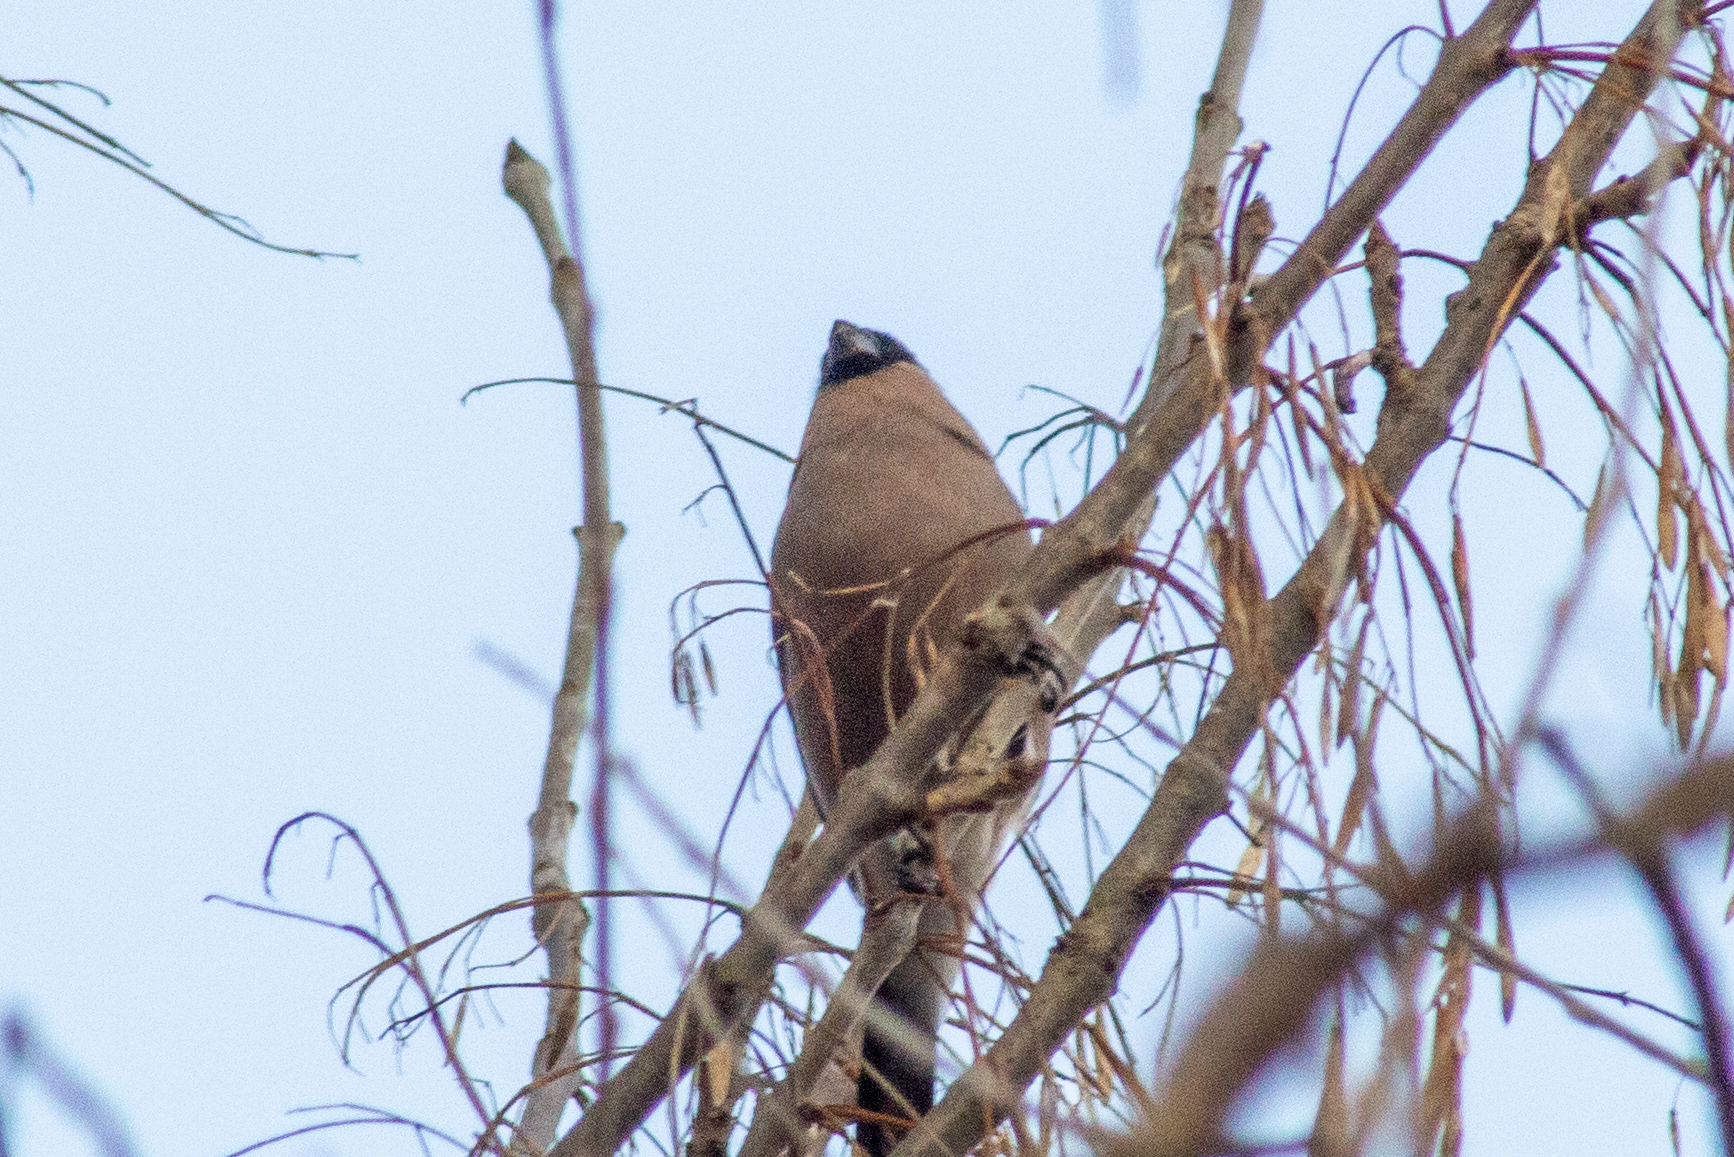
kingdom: Animalia
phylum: Chordata
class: Aves
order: Passeriformes
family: Fringillidae
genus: Pyrrhula
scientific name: Pyrrhula pyrrhula
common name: Eurasian bullfinch
